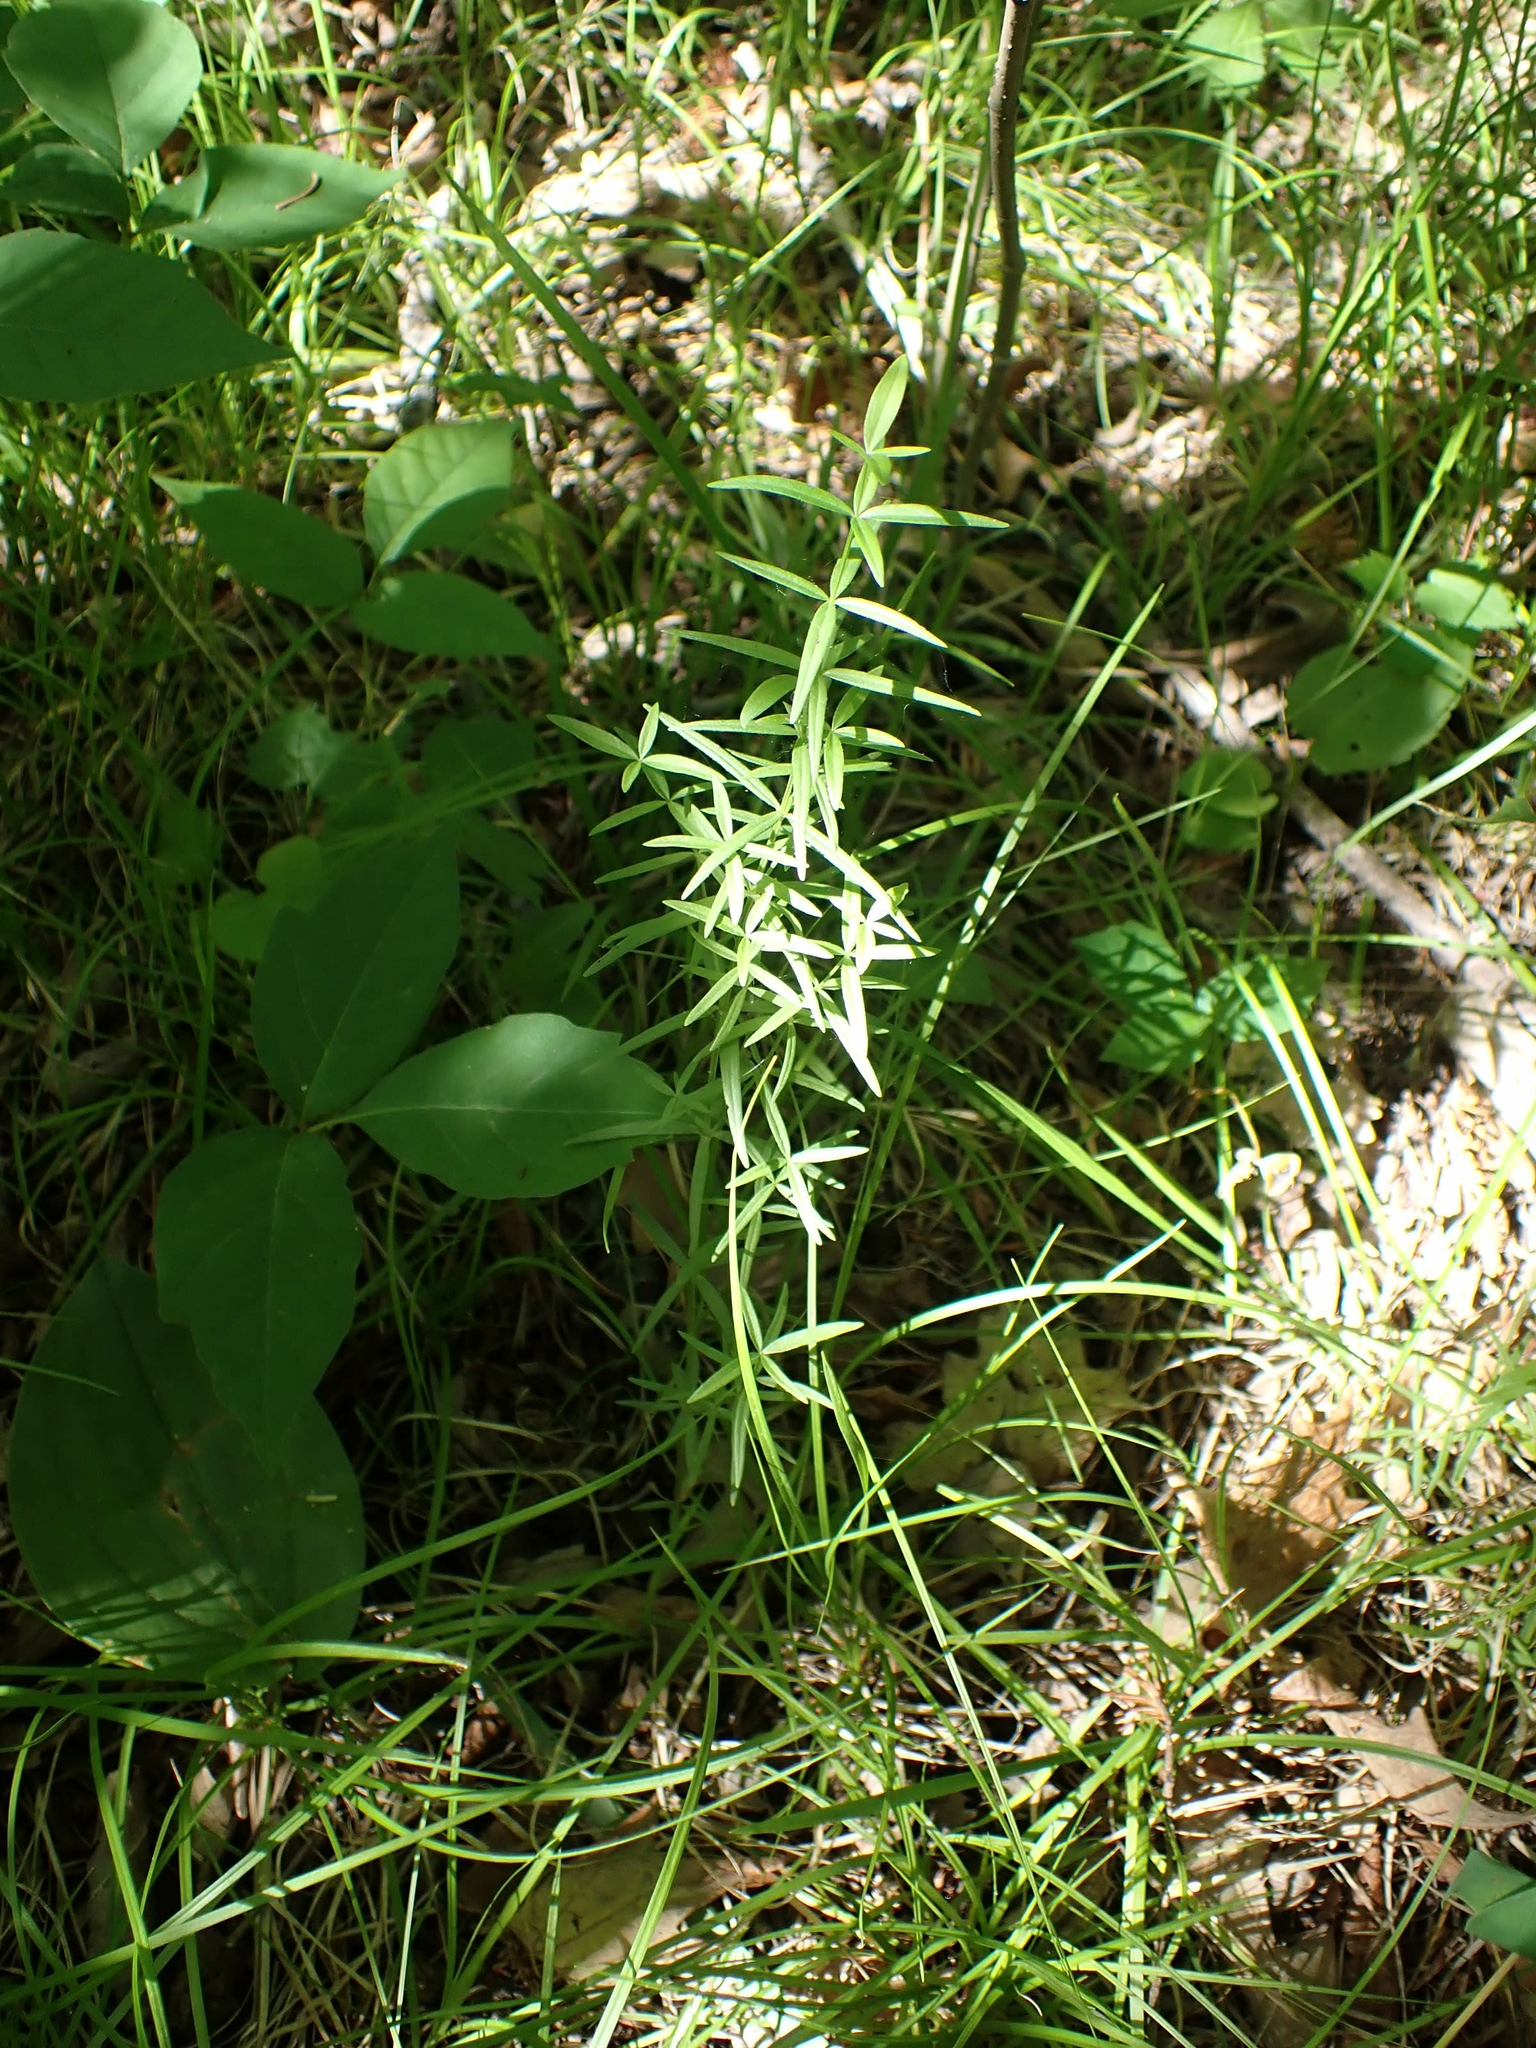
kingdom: Plantae
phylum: Tracheophyta
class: Magnoliopsida
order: Gentianales
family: Rubiaceae
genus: Galium
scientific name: Galium boreale
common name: Northern bedstraw
